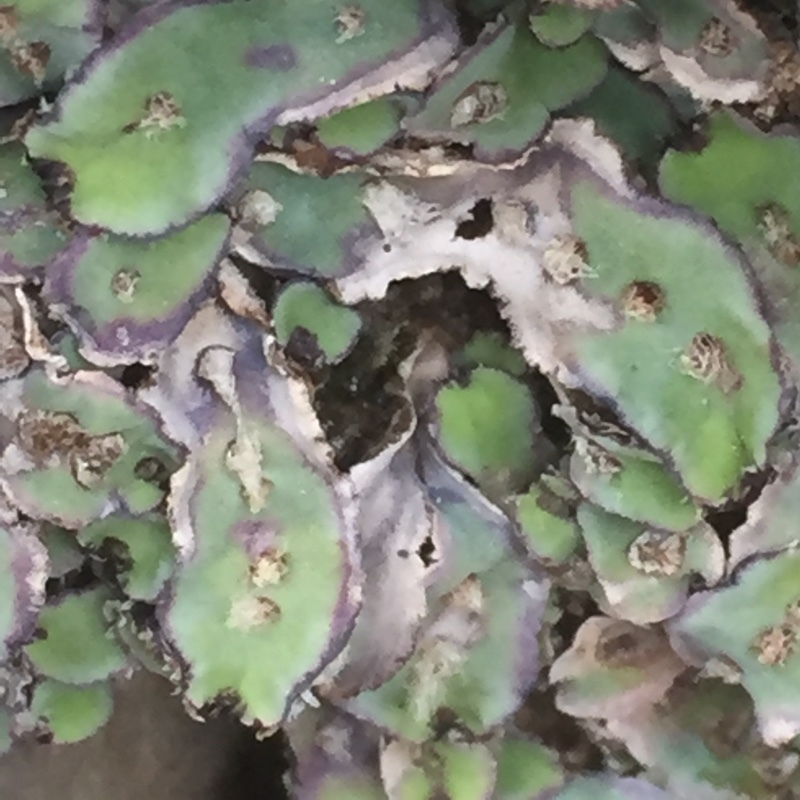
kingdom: Plantae
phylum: Marchantiophyta
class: Marchantiopsida
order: Marchantiales
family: Aytoniaceae
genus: Plagiochasma
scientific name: Plagiochasma rupestre
